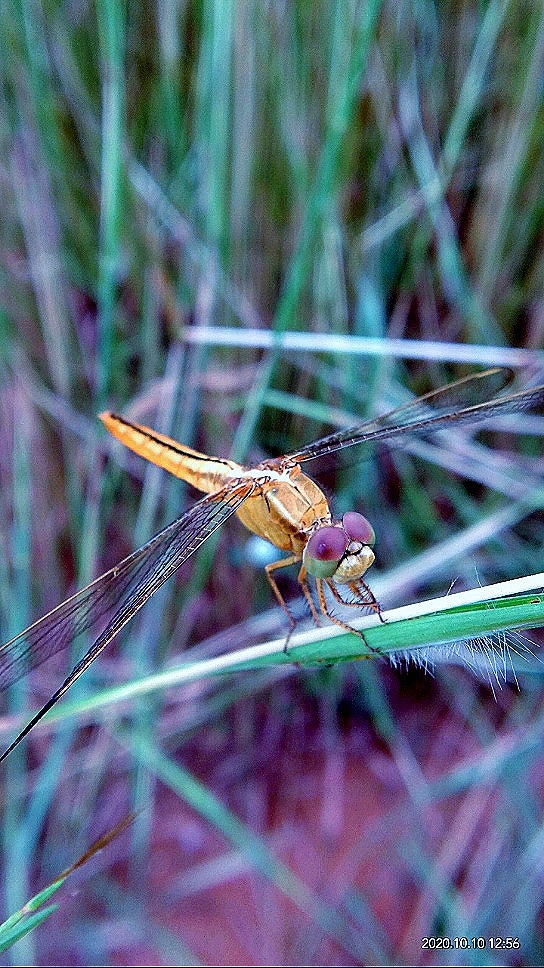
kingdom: Animalia
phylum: Arthropoda
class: Insecta
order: Odonata
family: Libellulidae
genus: Crocothemis
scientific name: Crocothemis servilia
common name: Scarlet skimmer
